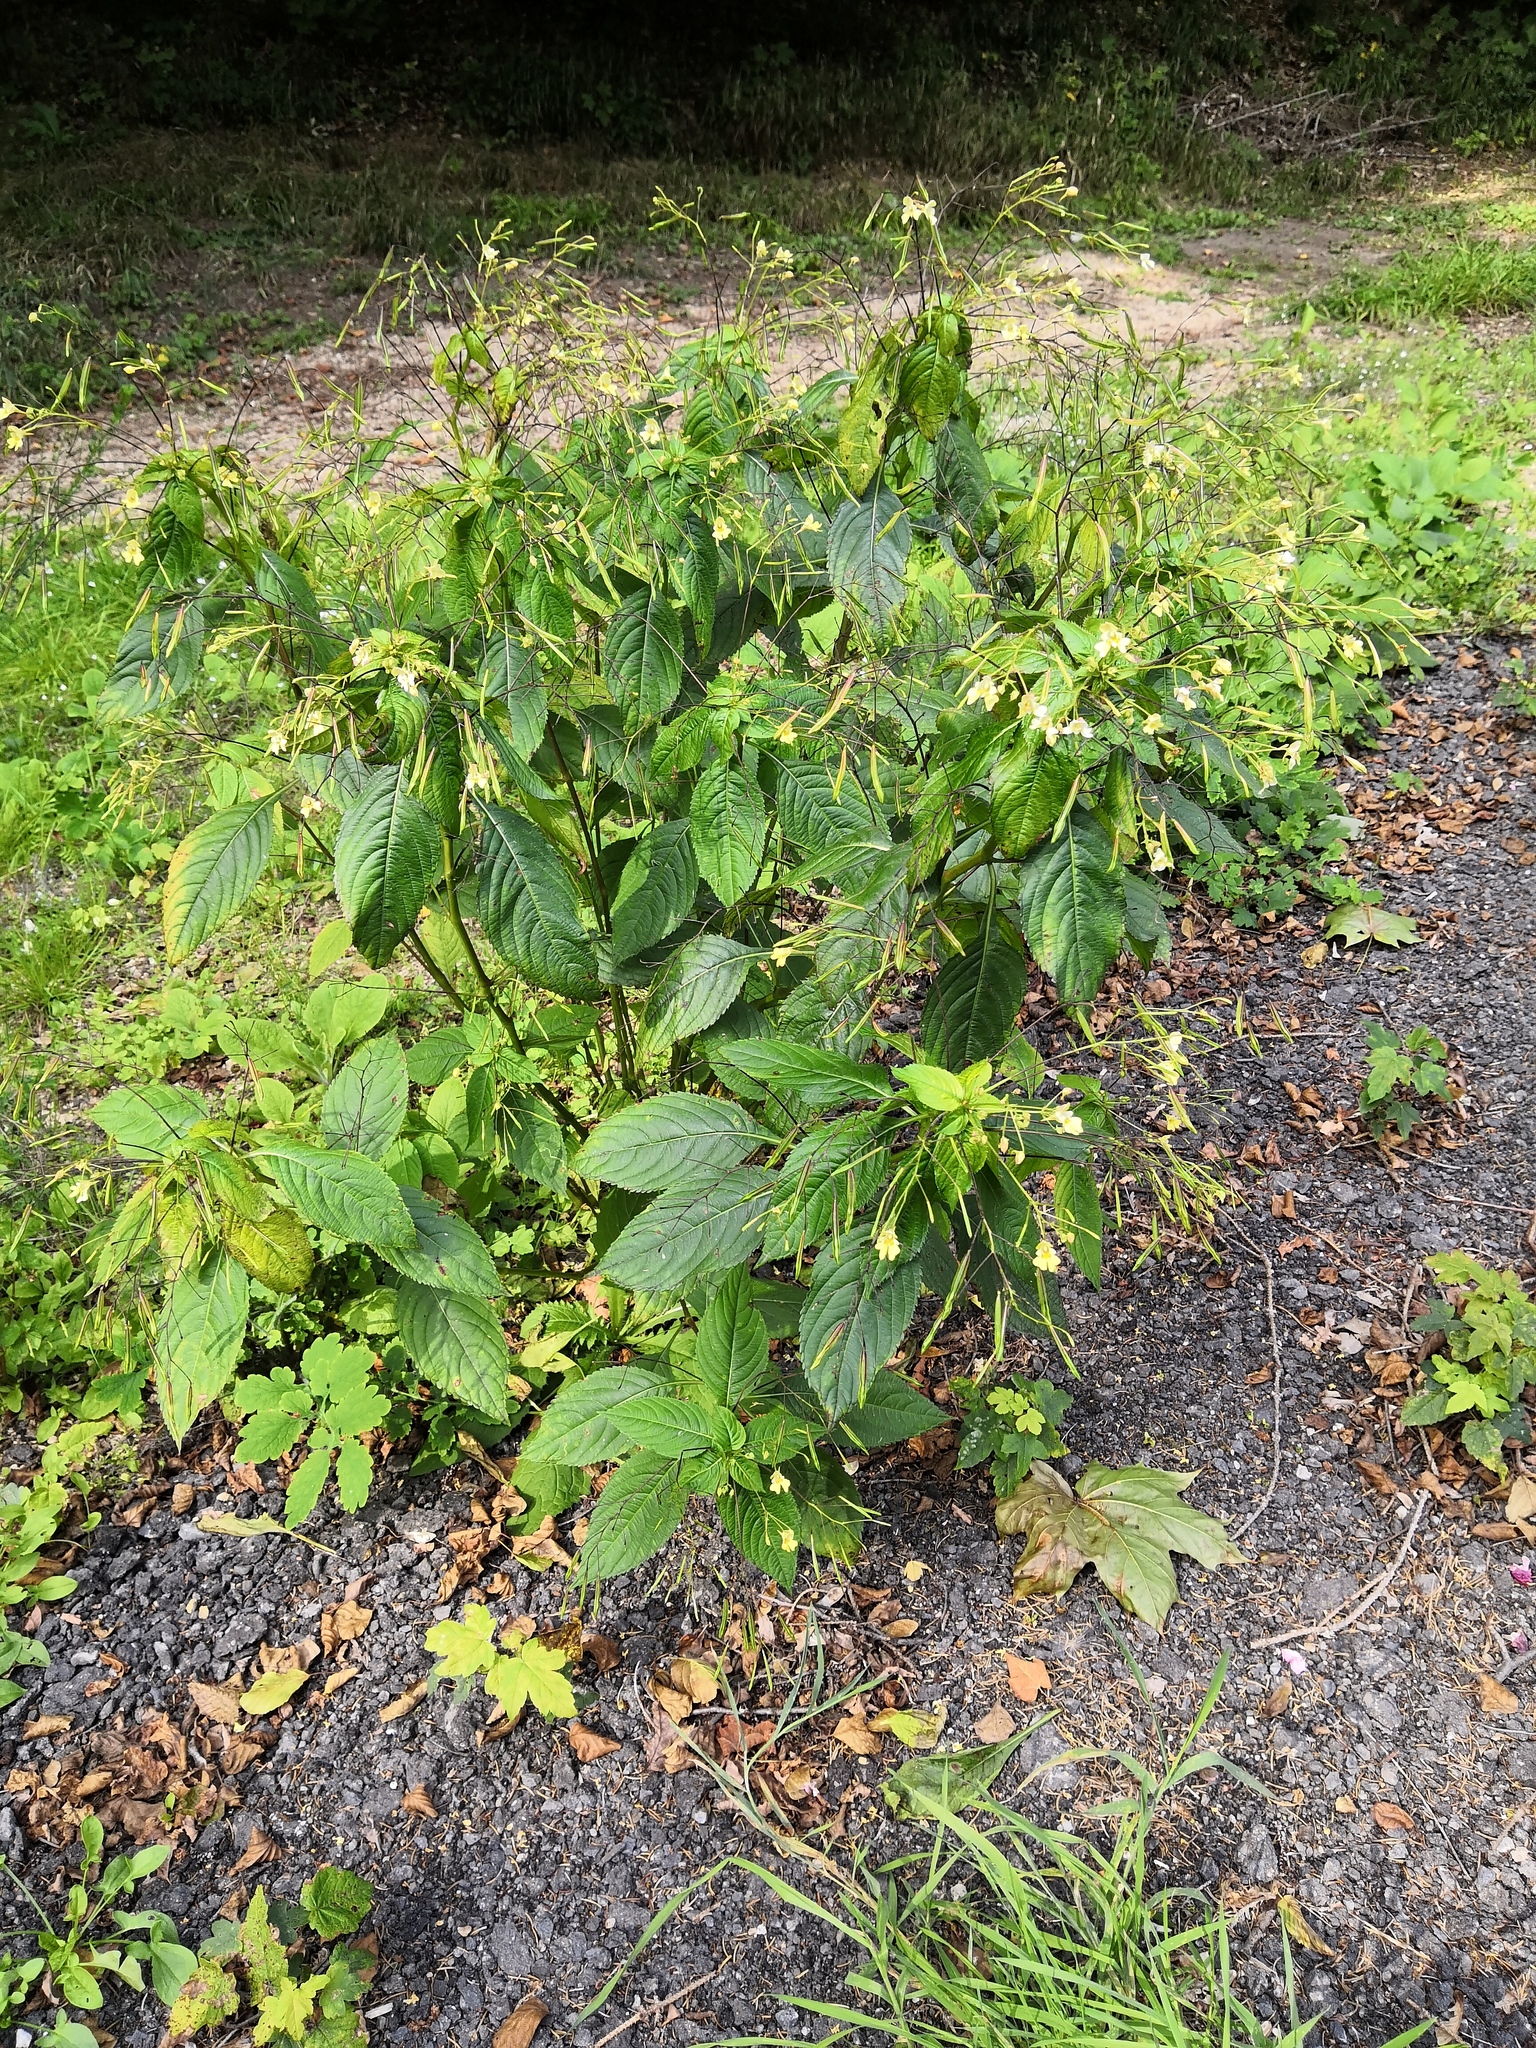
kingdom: Plantae
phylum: Tracheophyta
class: Magnoliopsida
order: Ericales
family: Balsaminaceae
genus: Impatiens
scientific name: Impatiens parviflora
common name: Small balsam
